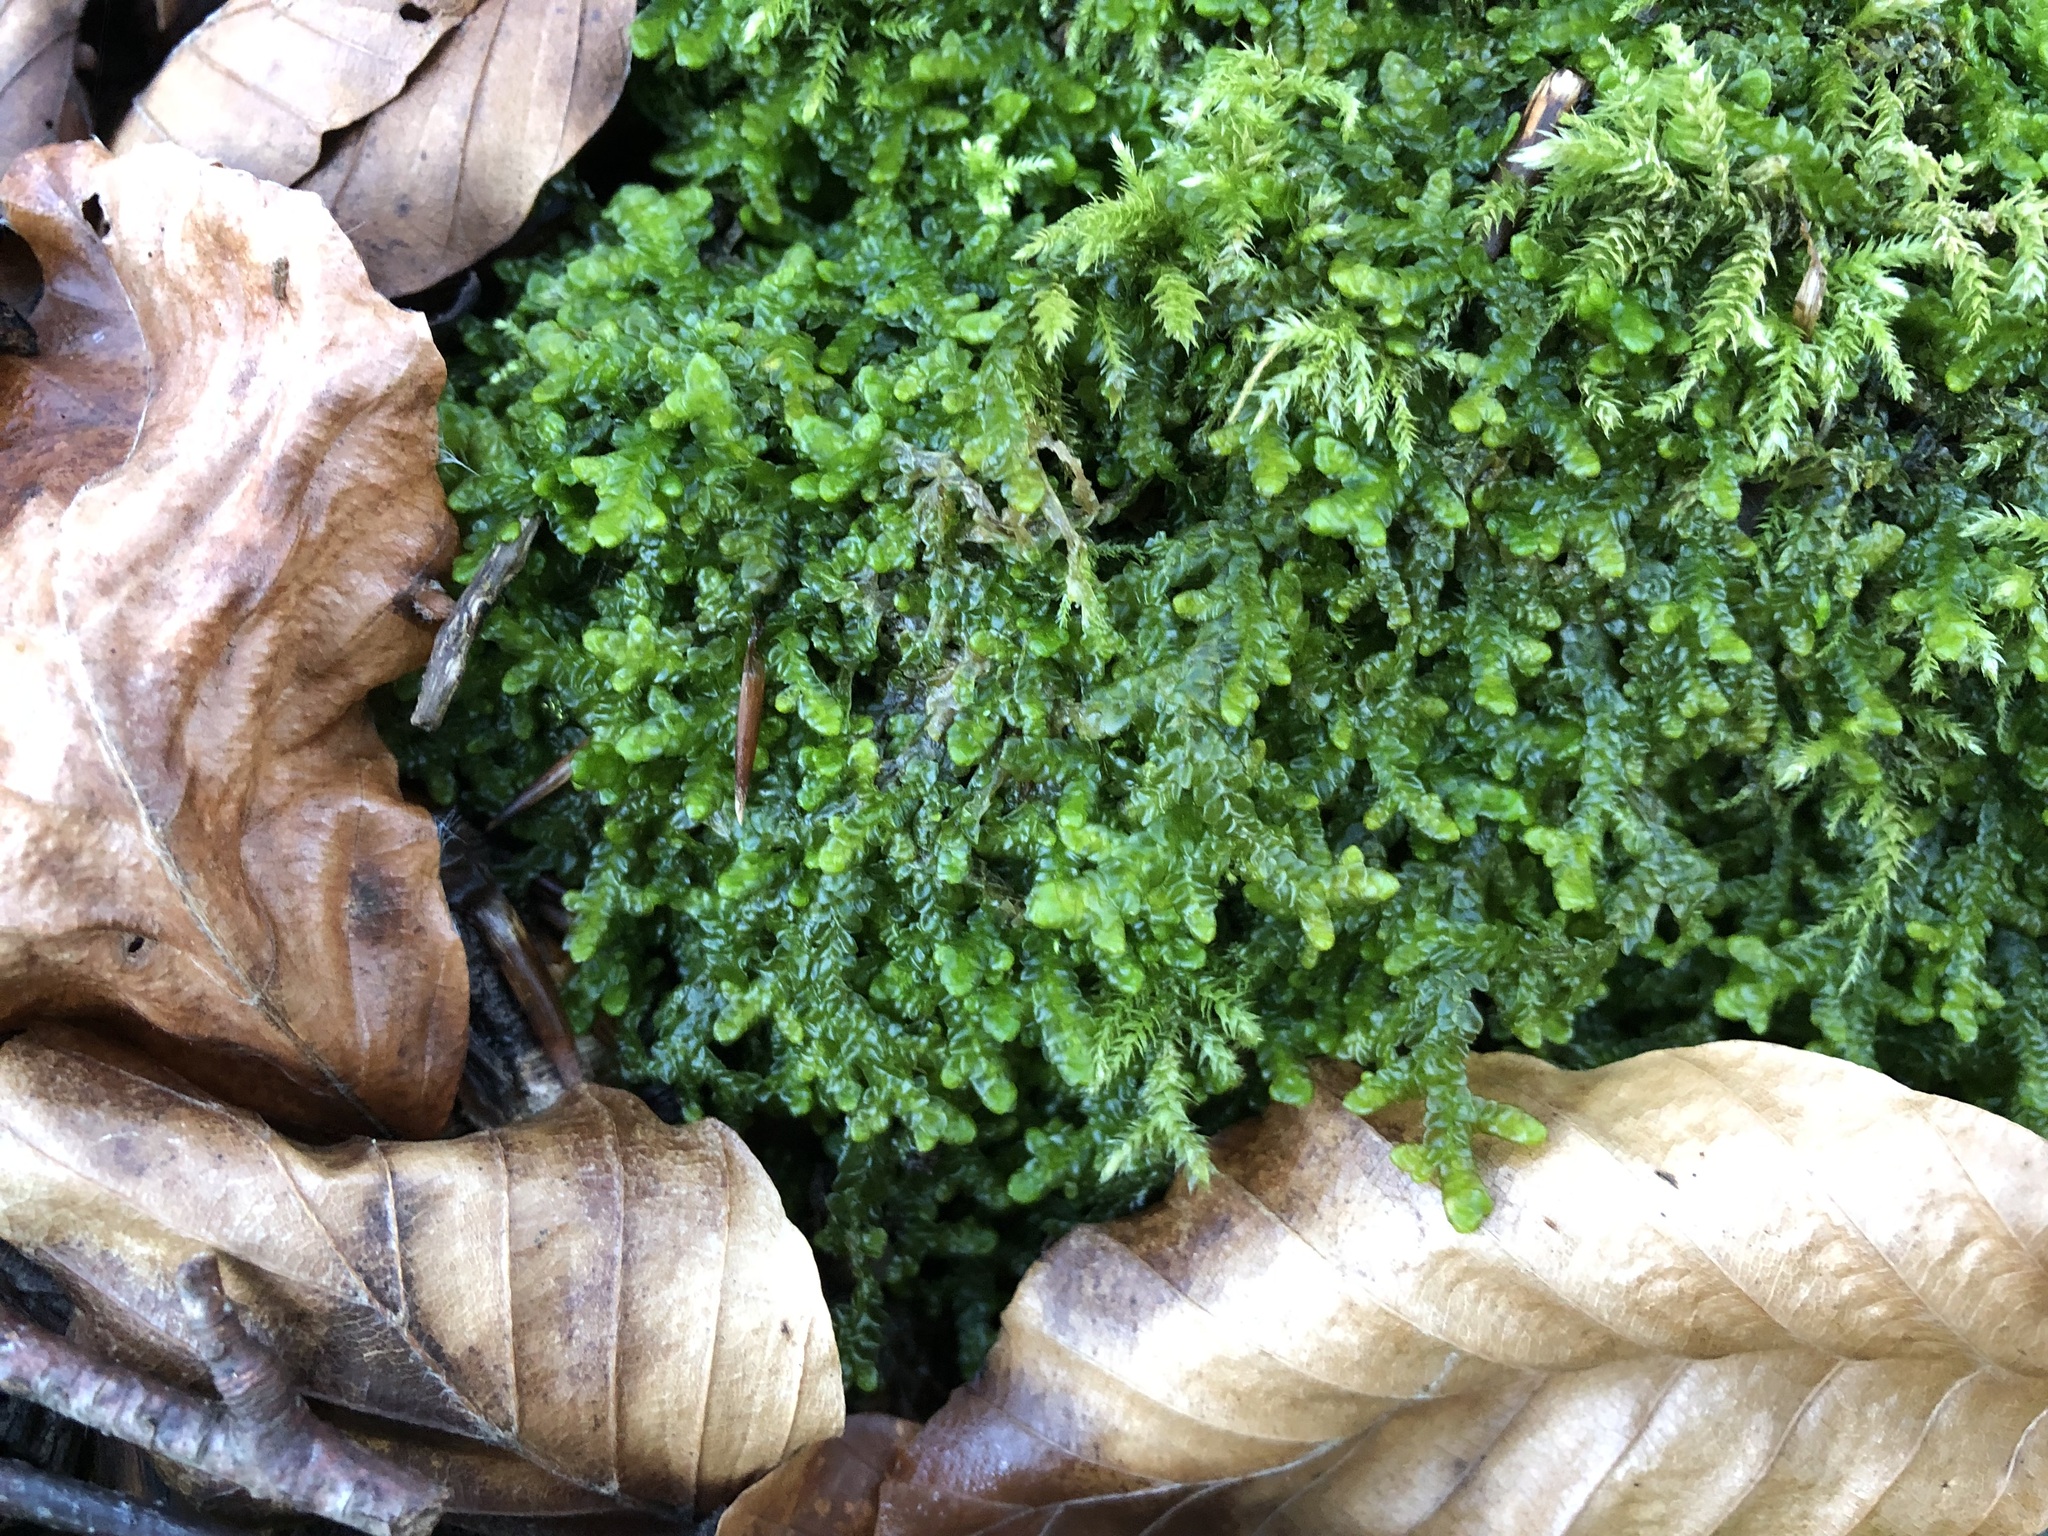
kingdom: Plantae
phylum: Marchantiophyta
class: Jungermanniopsida
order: Porellales
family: Porellaceae
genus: Porella
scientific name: Porella platyphylla
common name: Wall scalewort
